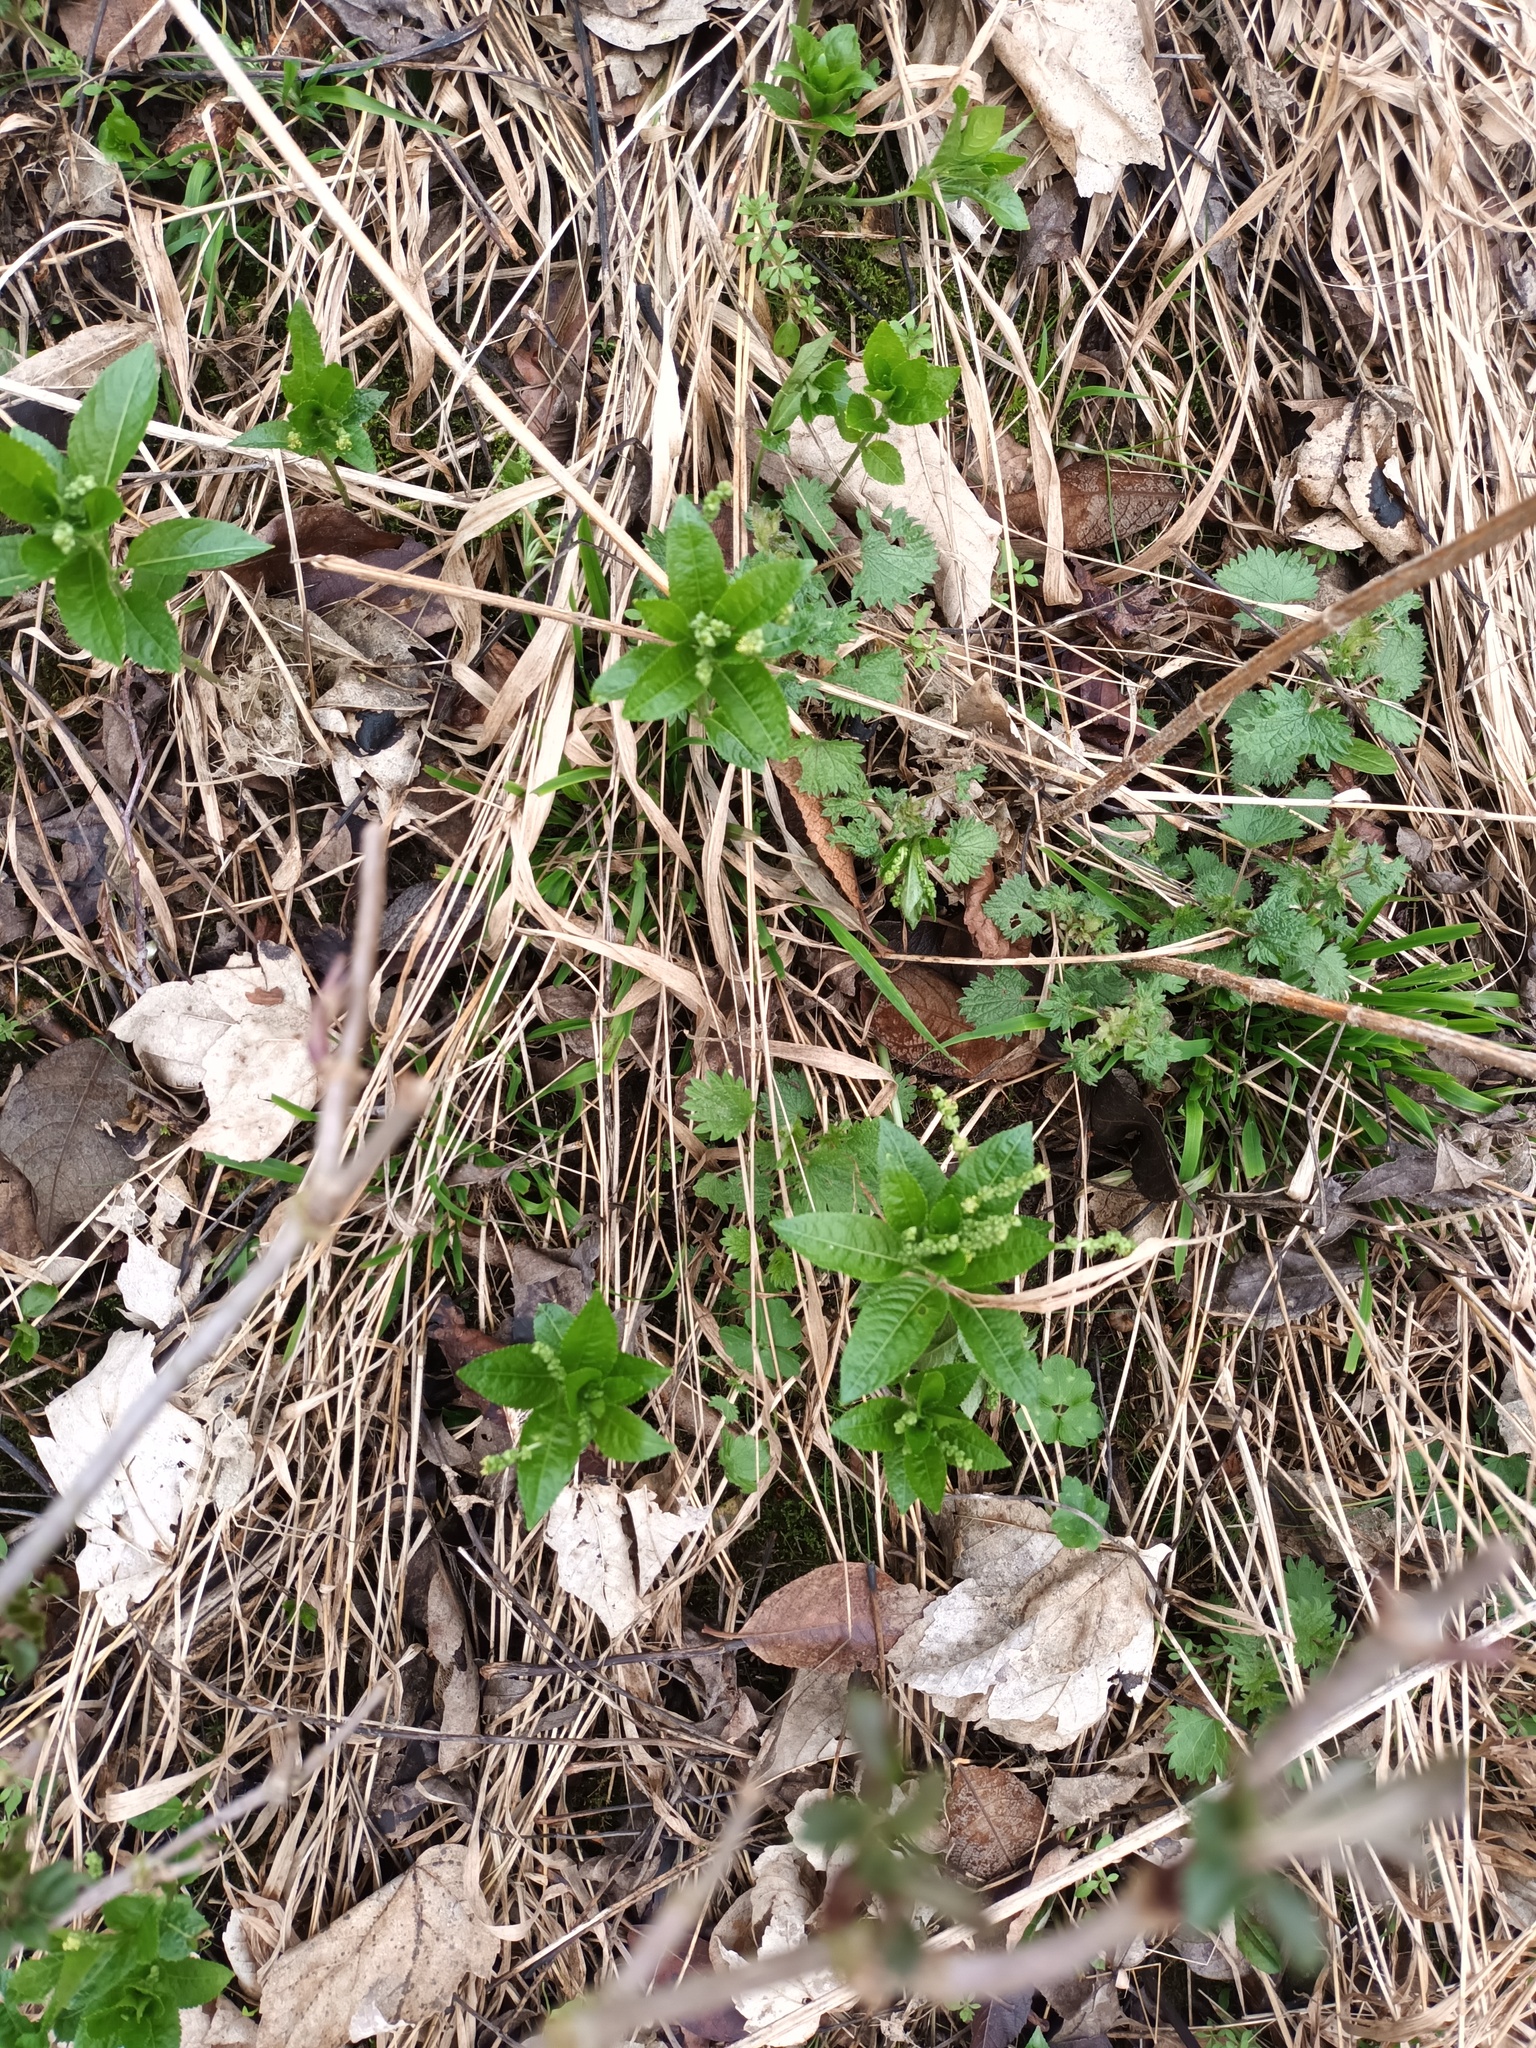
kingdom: Plantae
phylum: Tracheophyta
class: Magnoliopsida
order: Malpighiales
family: Euphorbiaceae
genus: Mercurialis
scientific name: Mercurialis perennis
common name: Dog mercury
